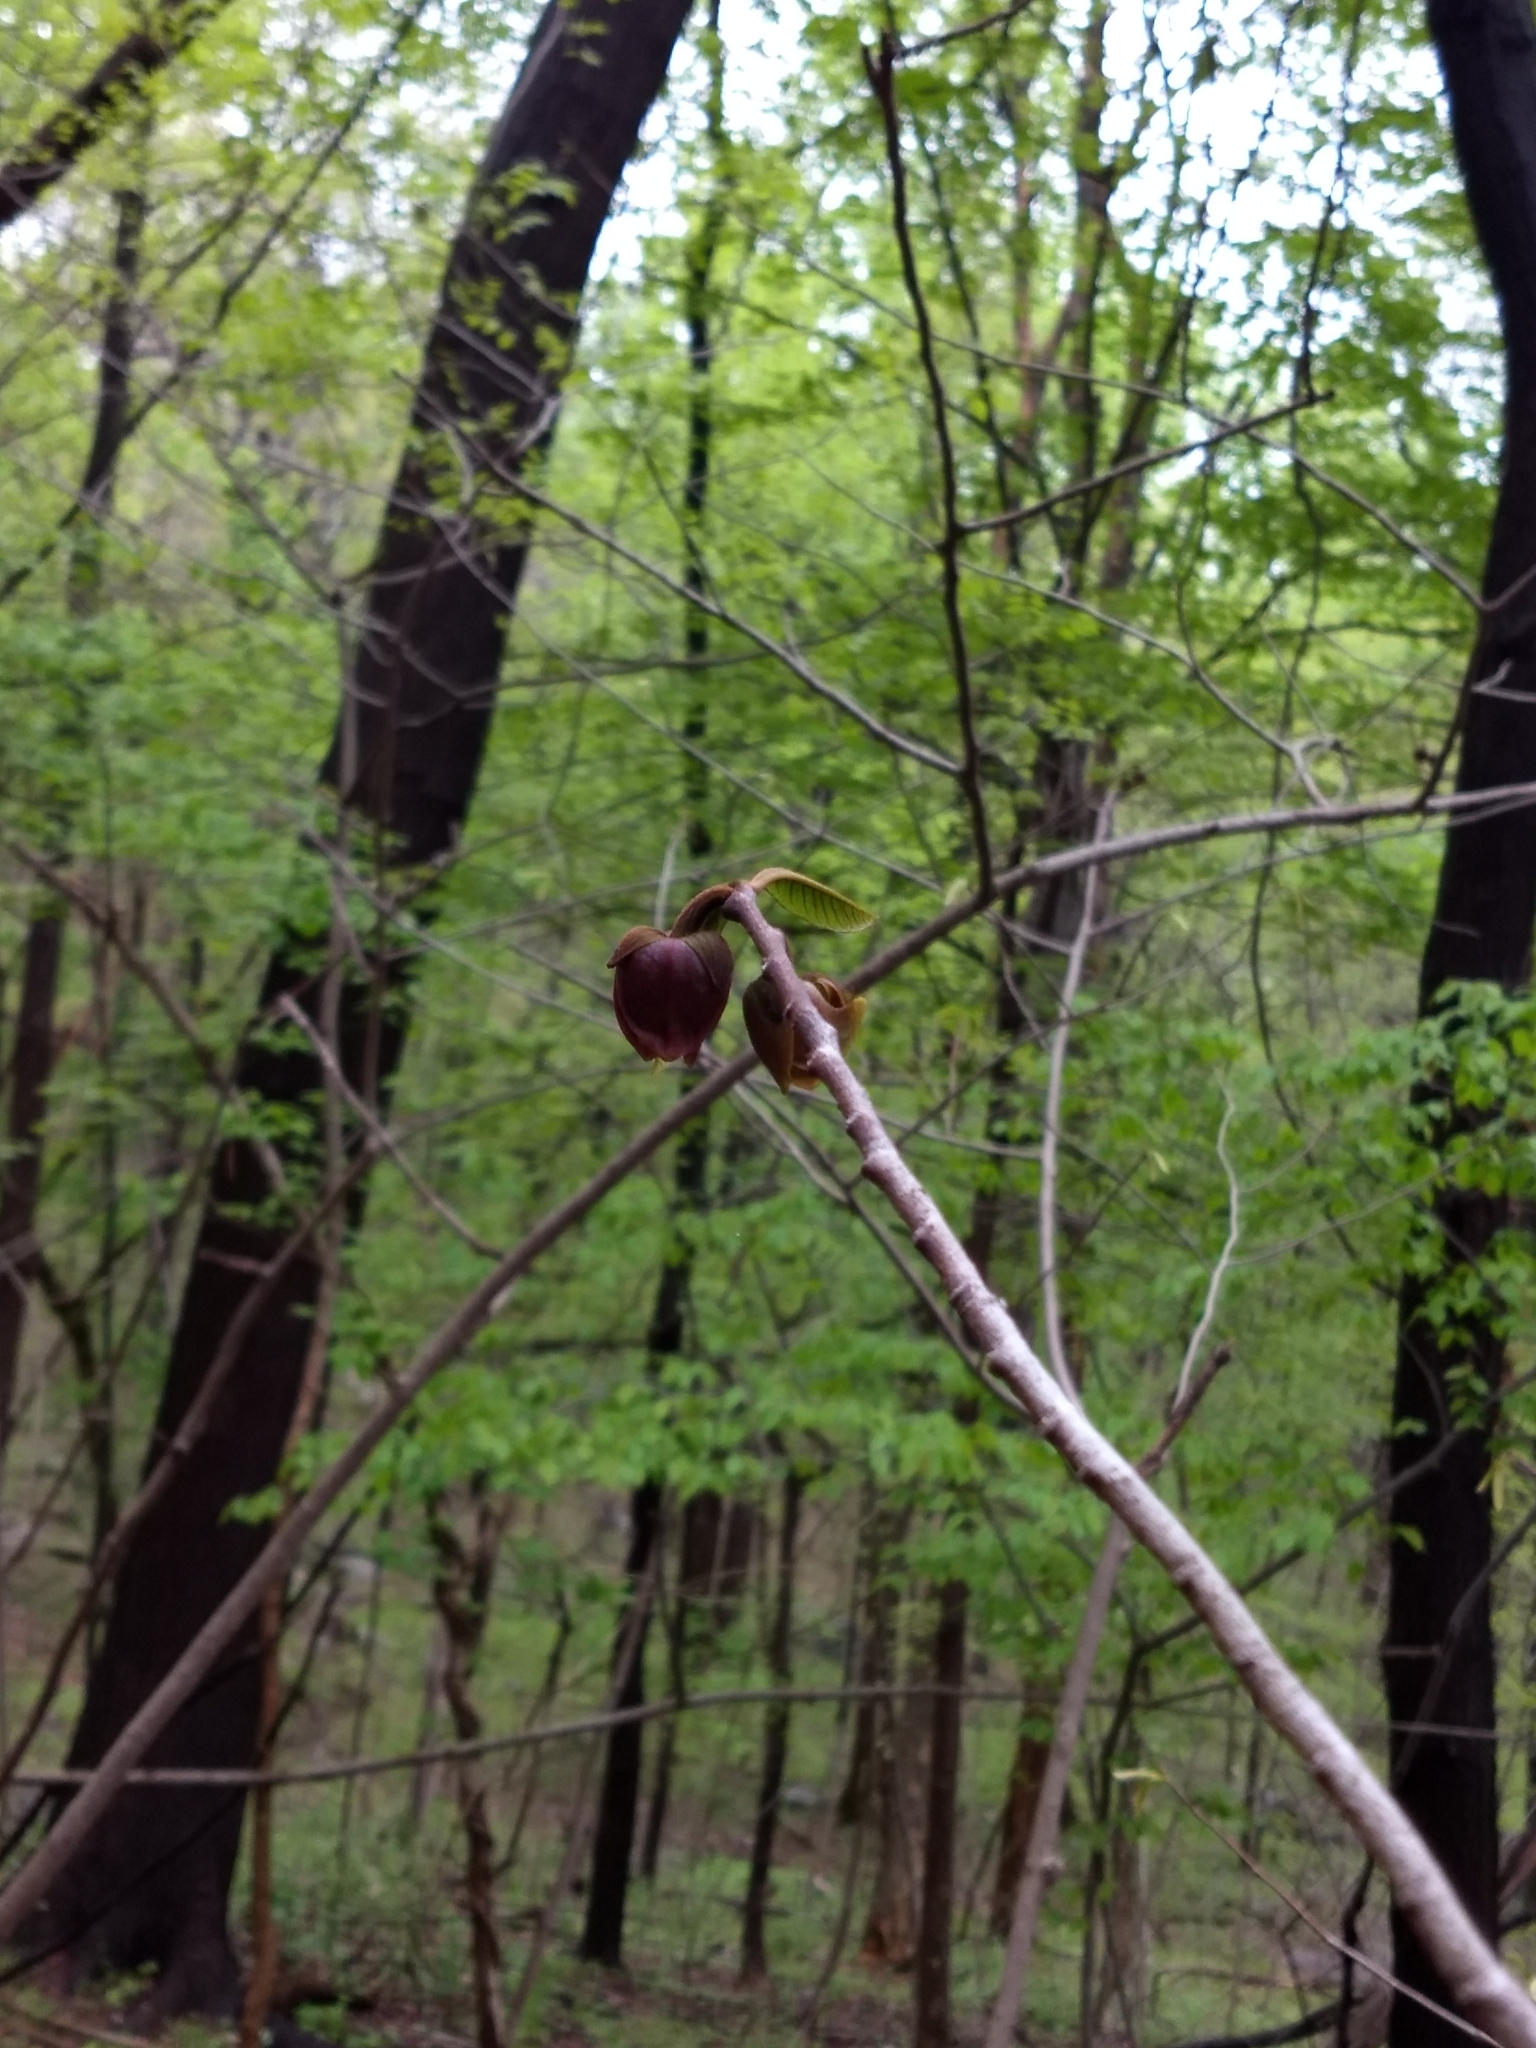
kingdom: Plantae
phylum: Tracheophyta
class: Magnoliopsida
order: Magnoliales
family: Annonaceae
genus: Asimina
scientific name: Asimina triloba
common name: Dog-banana
